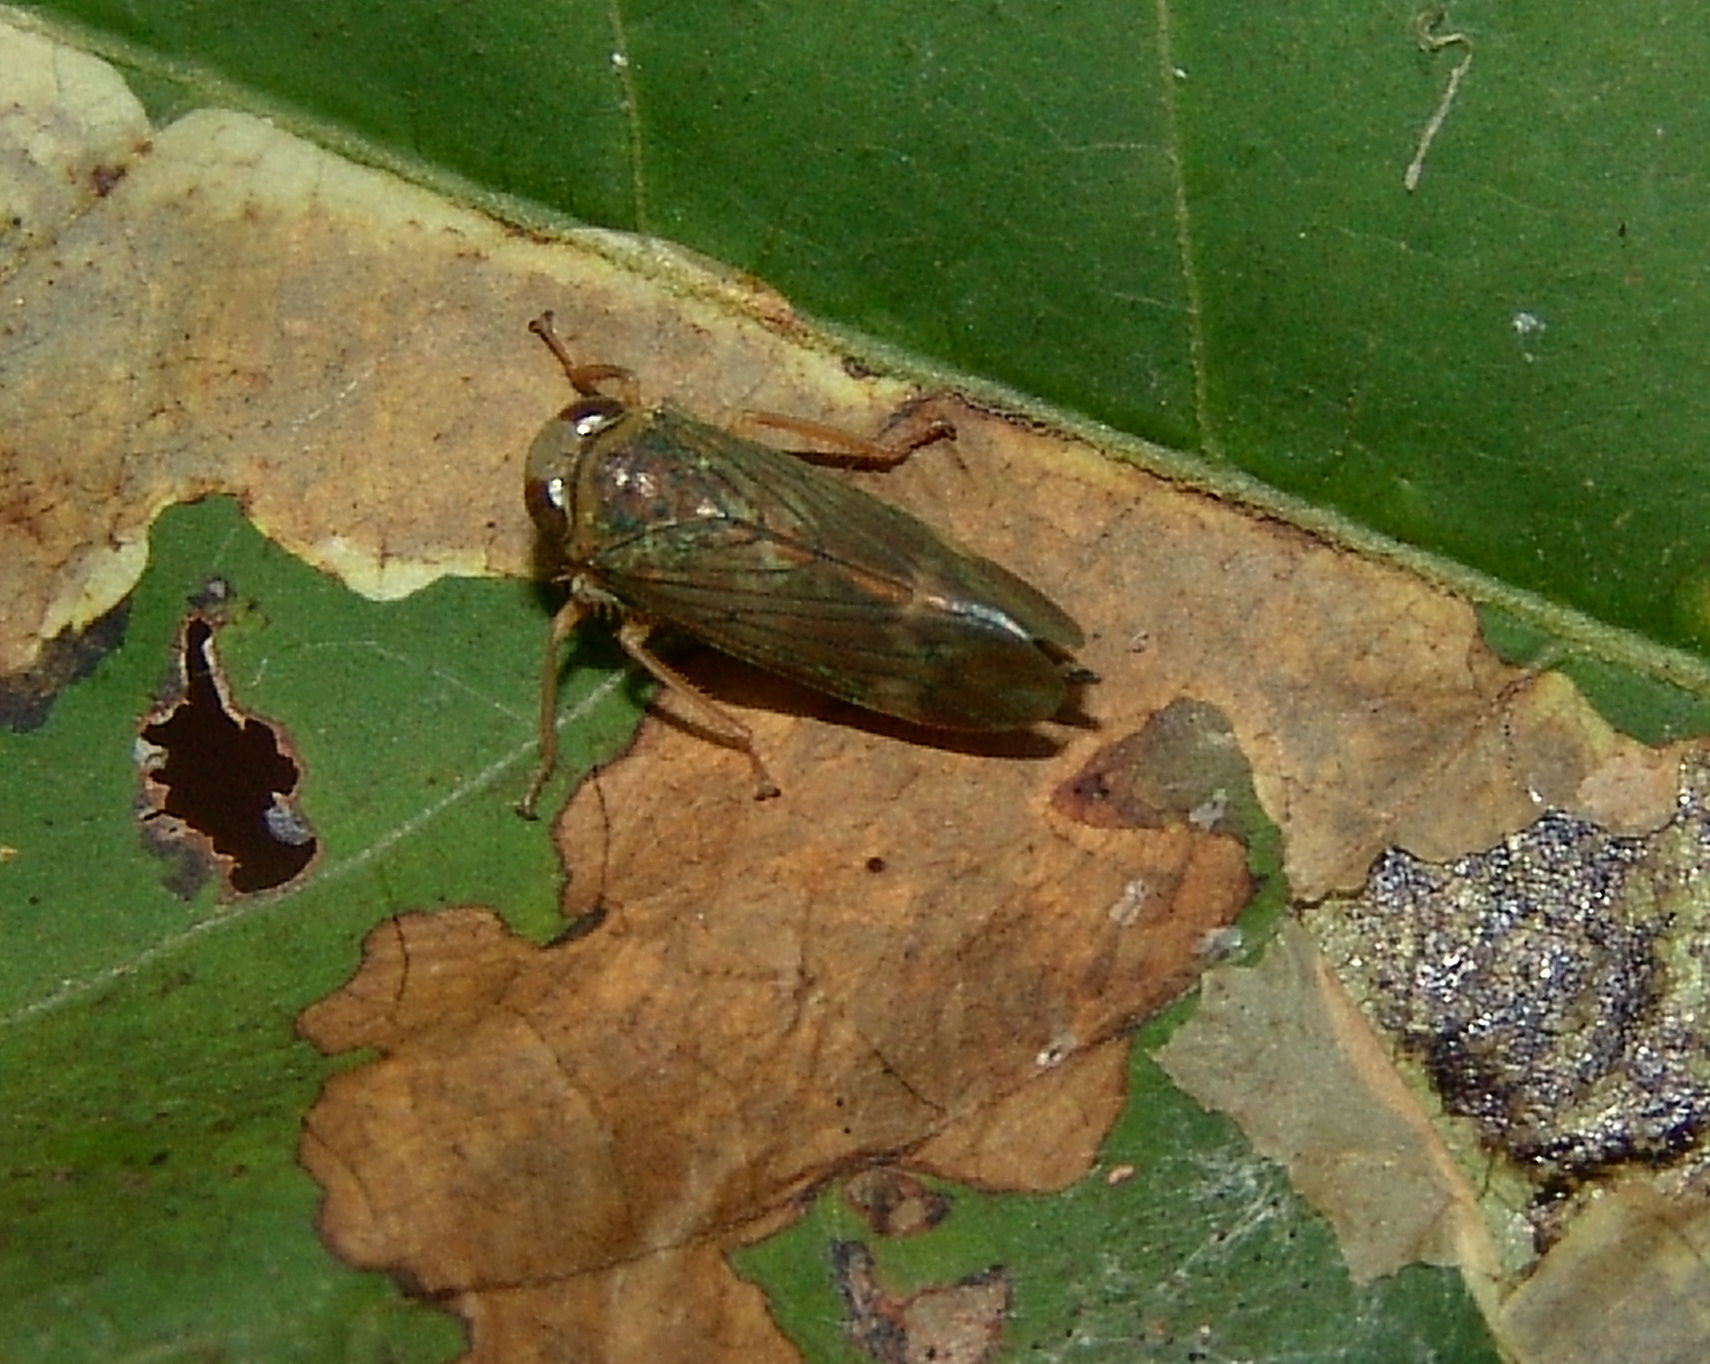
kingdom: Animalia
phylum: Arthropoda
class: Insecta
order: Hemiptera
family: Cicadellidae
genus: Jikradia
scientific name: Jikradia olitoria
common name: Coppery leafhopper
